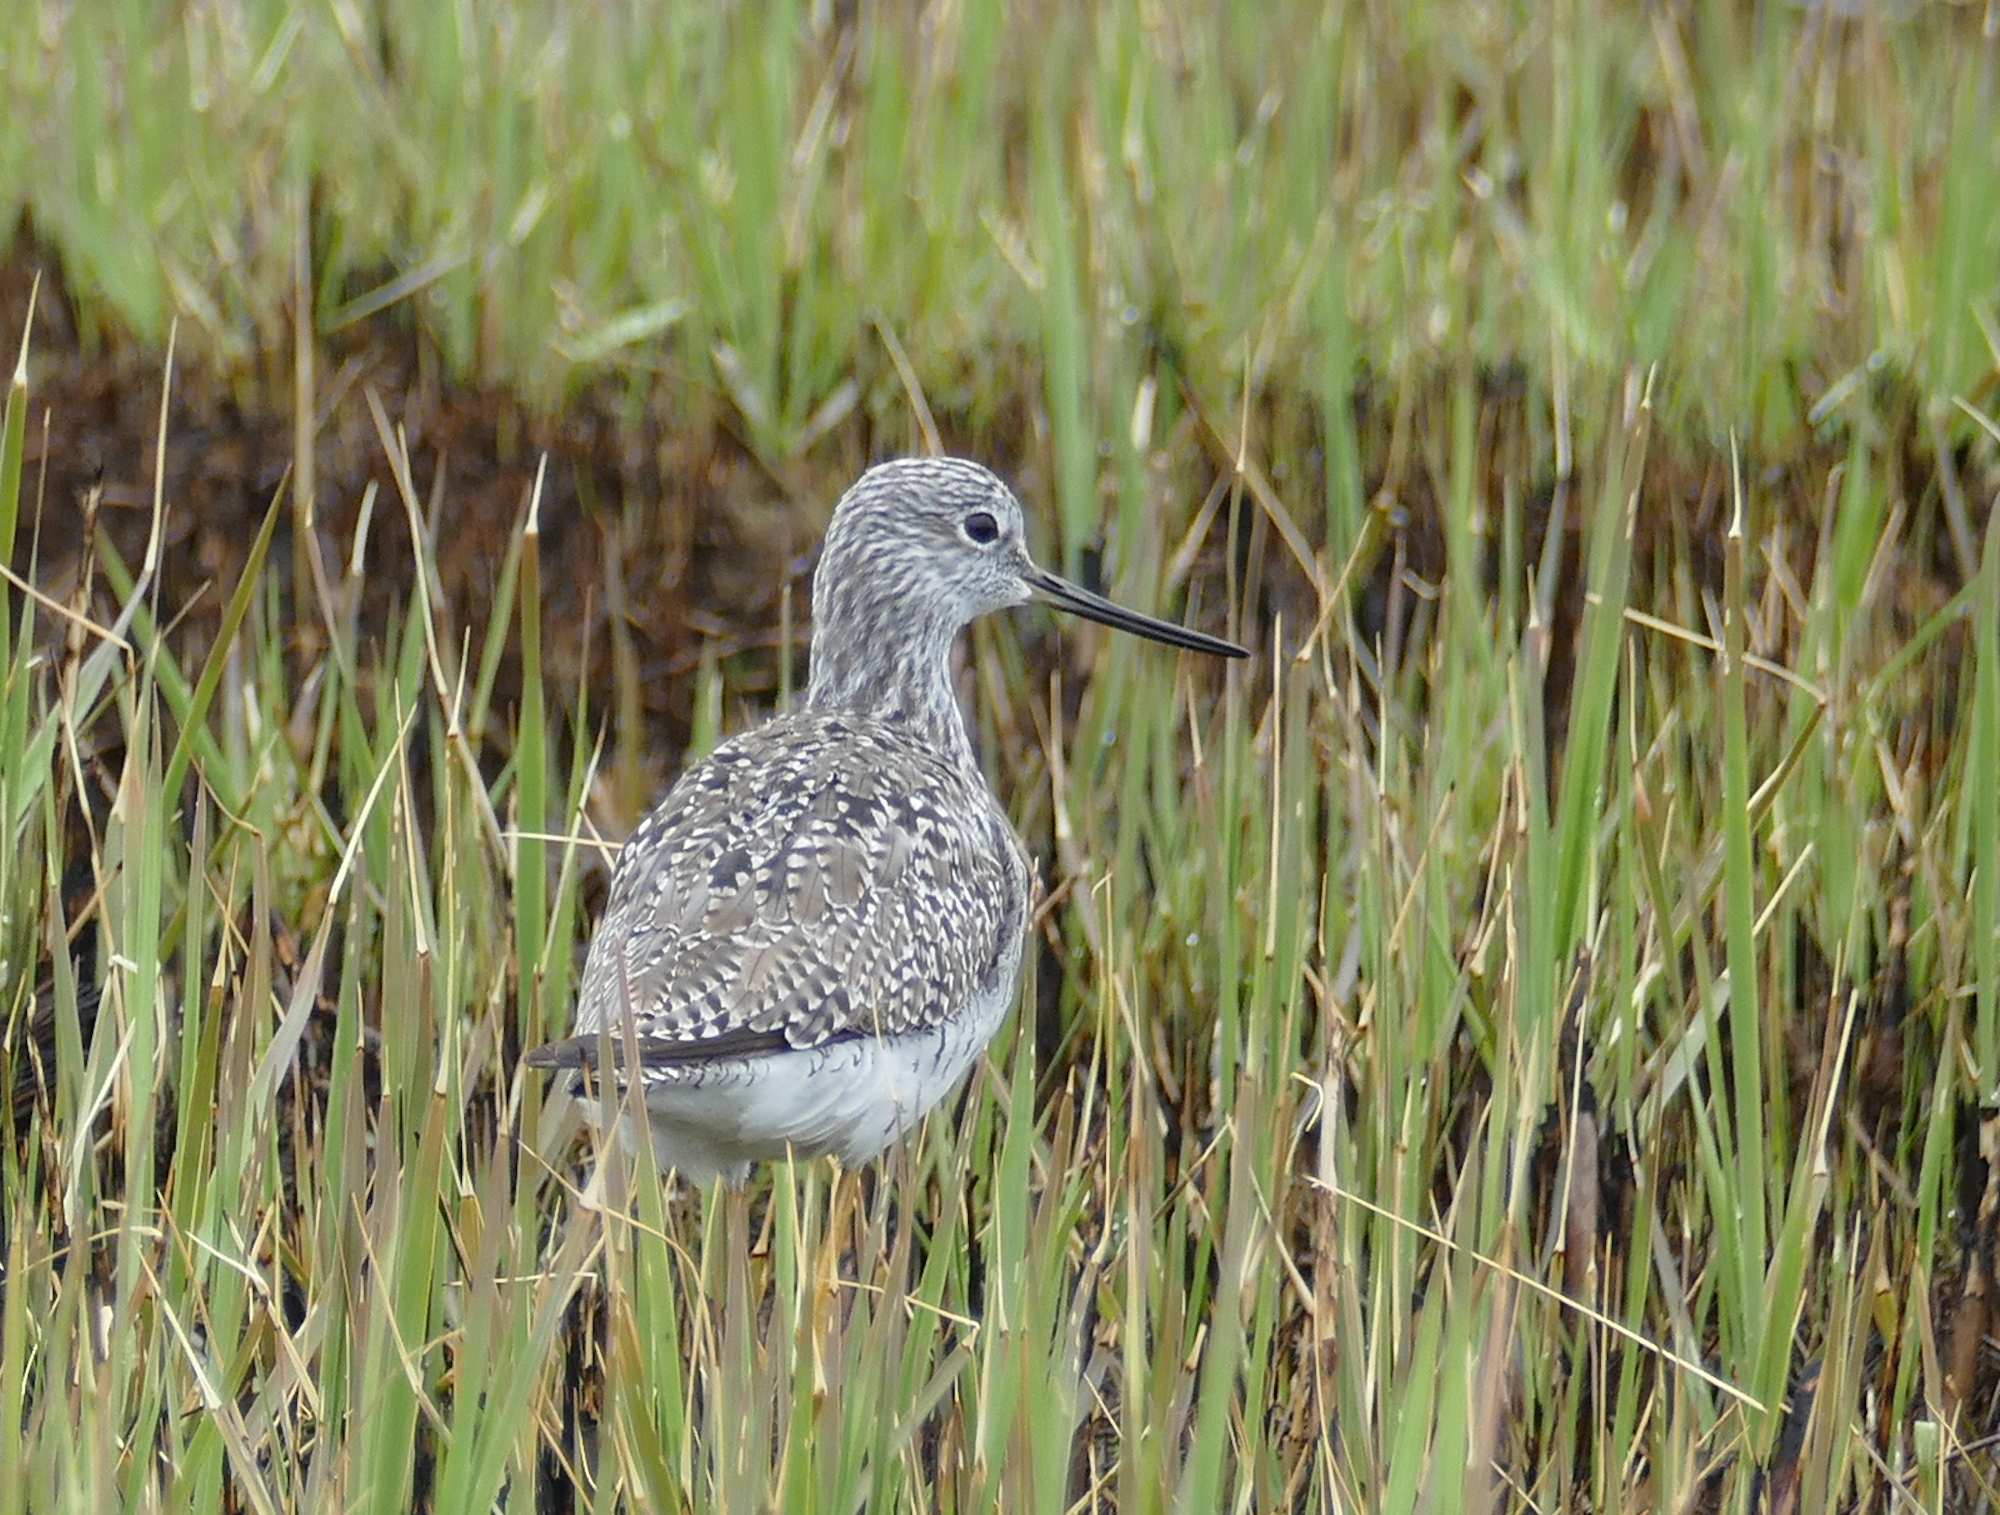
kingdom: Animalia
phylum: Chordata
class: Aves
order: Charadriiformes
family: Scolopacidae
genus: Tringa
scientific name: Tringa melanoleuca
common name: Greater yellowlegs
